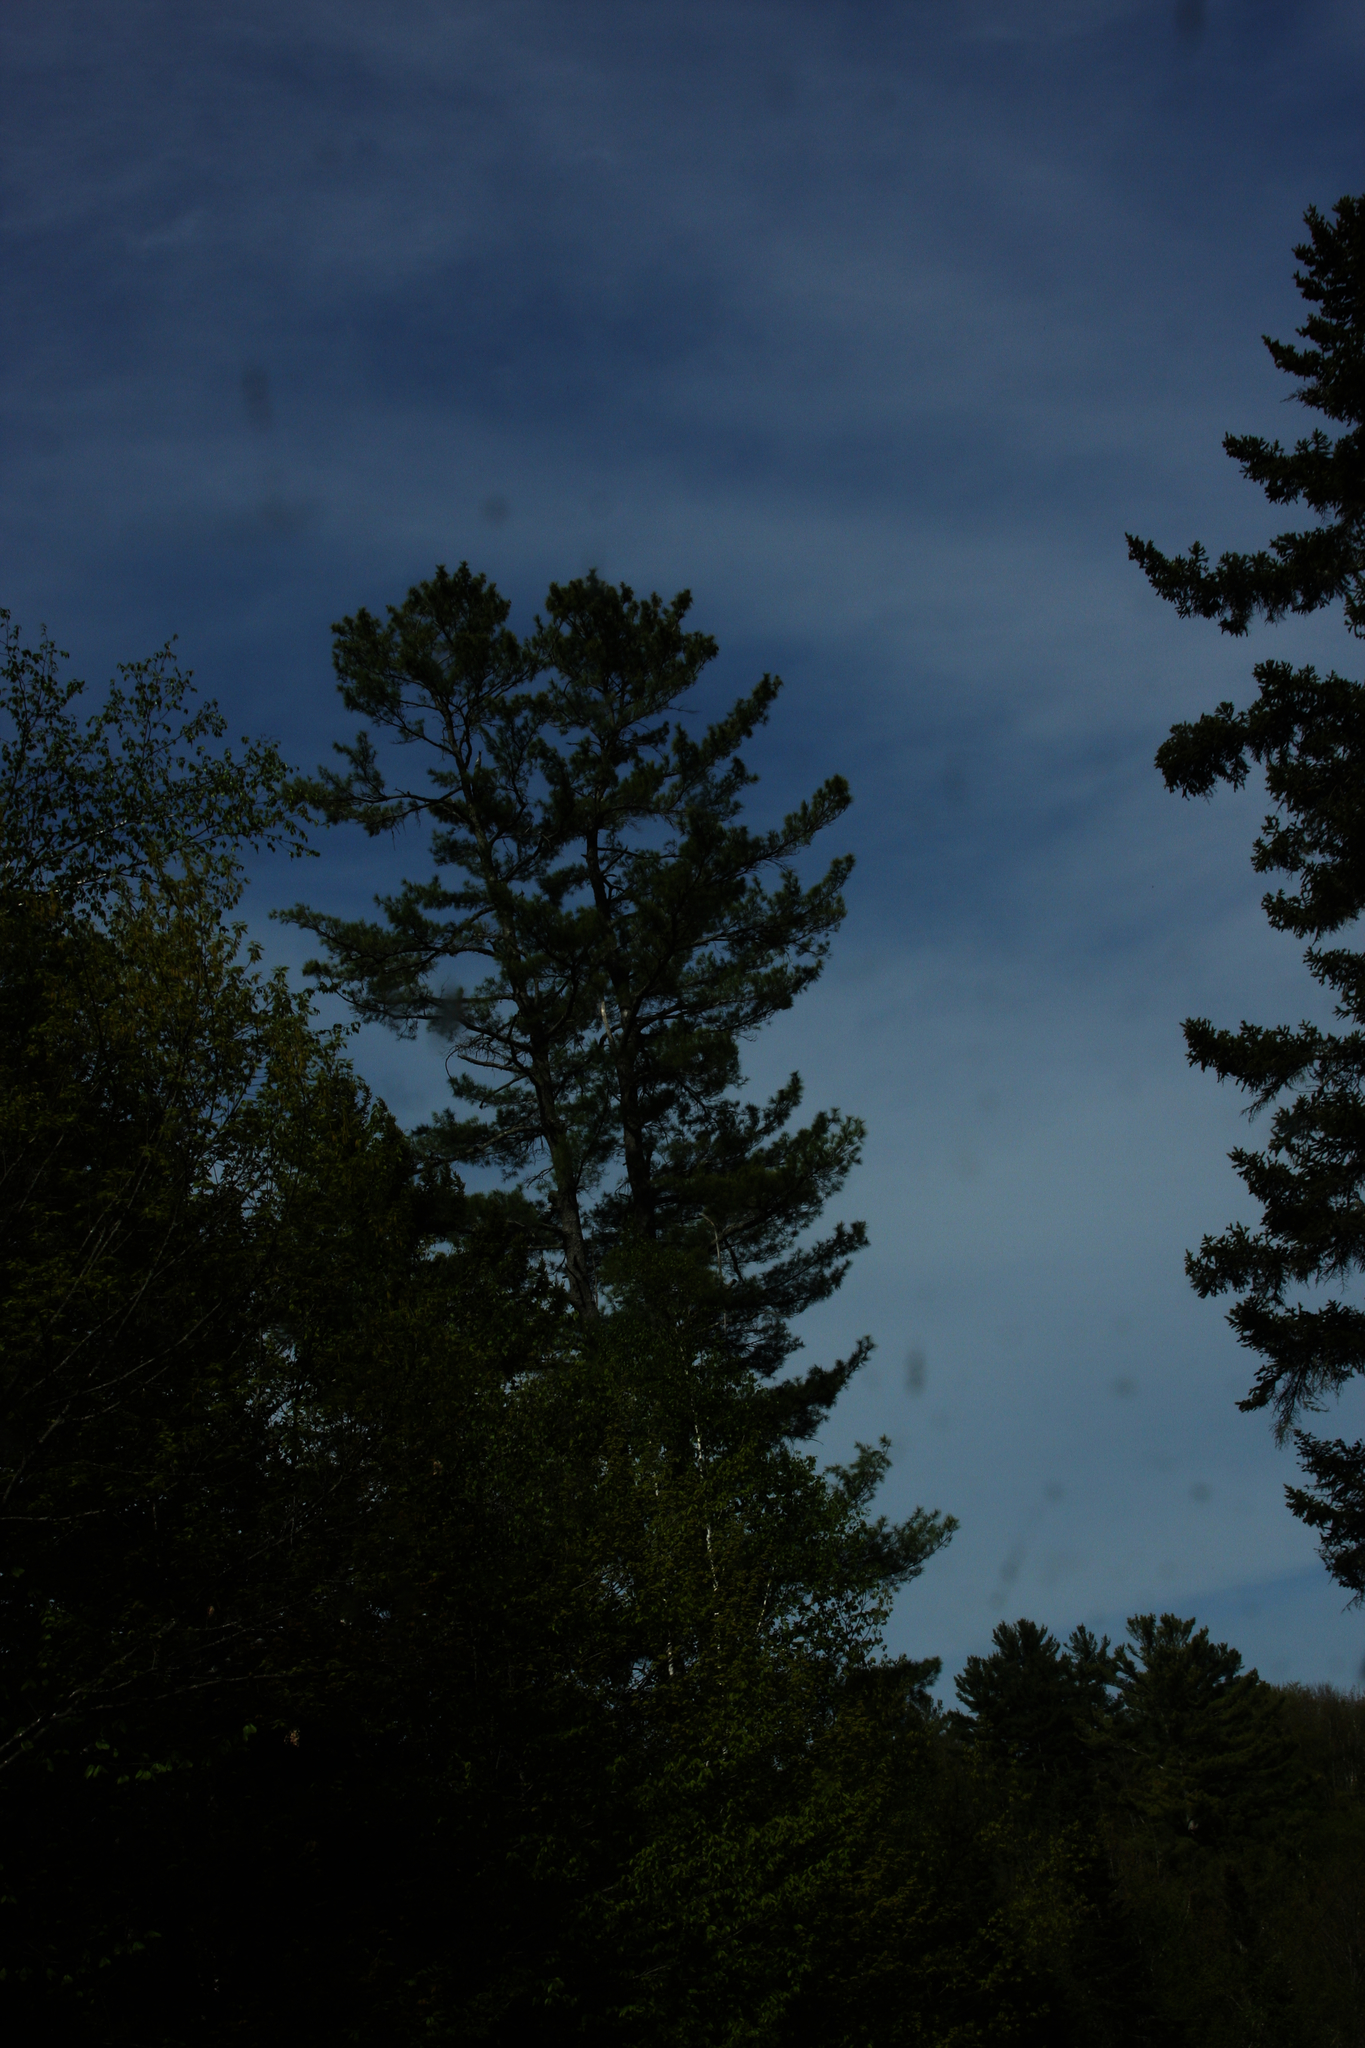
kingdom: Plantae
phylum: Tracheophyta
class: Pinopsida
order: Pinales
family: Pinaceae
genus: Pinus
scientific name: Pinus strobus
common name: Weymouth pine
